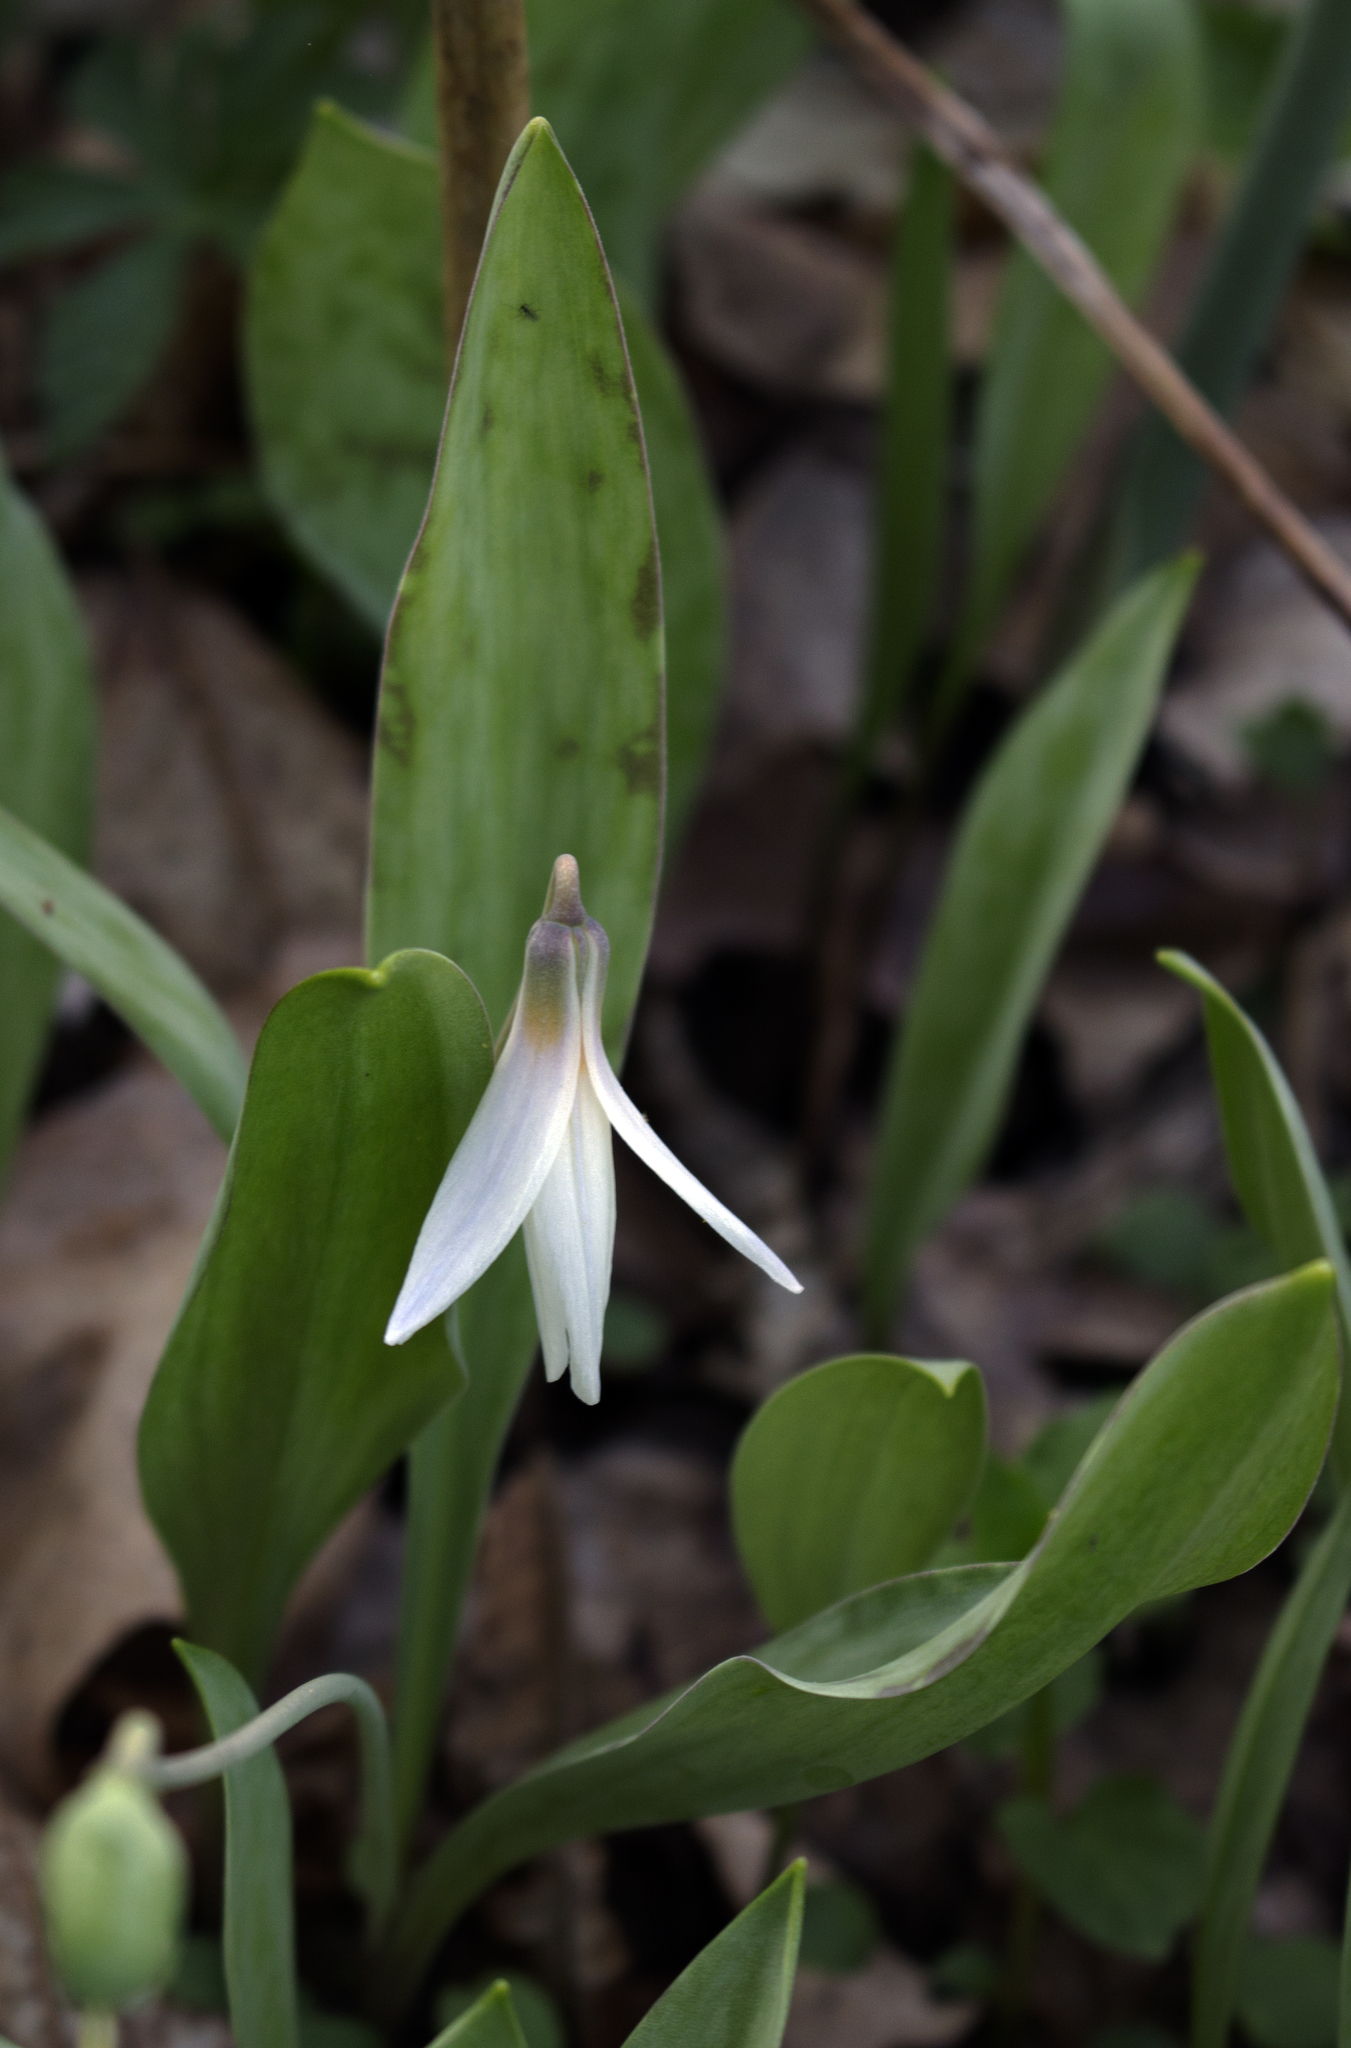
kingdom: Plantae
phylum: Tracheophyta
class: Liliopsida
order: Liliales
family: Liliaceae
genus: Erythronium
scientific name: Erythronium albidum
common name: White trout-lily
